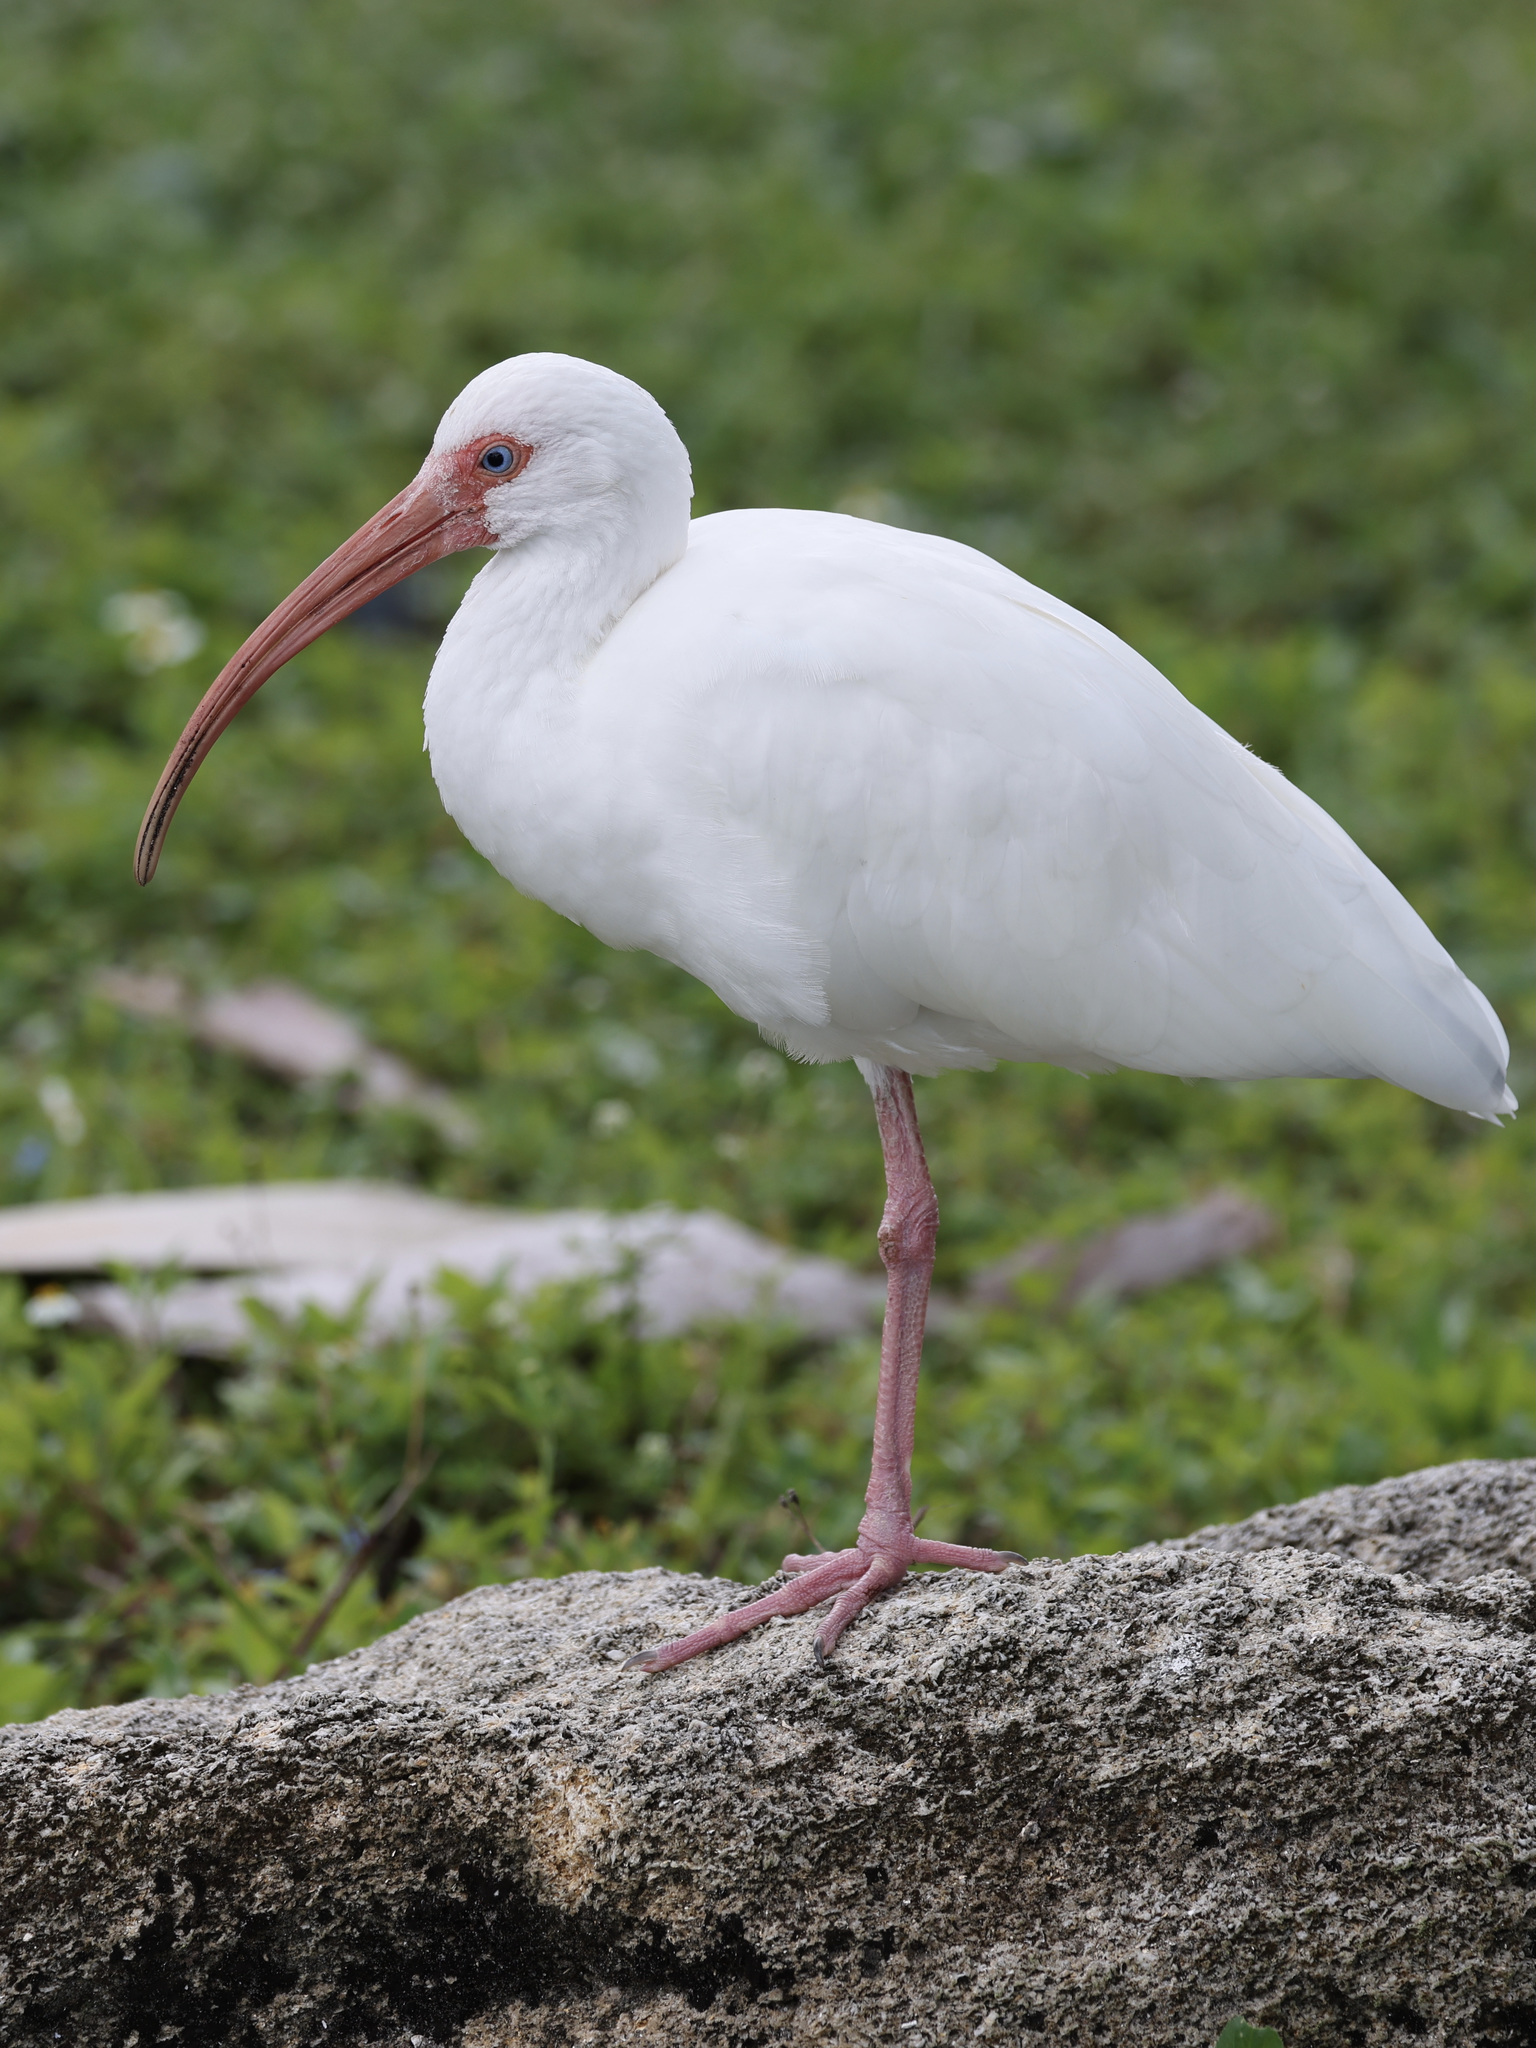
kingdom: Animalia
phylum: Chordata
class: Aves
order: Pelecaniformes
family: Threskiornithidae
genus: Eudocimus
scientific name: Eudocimus albus
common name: White ibis
